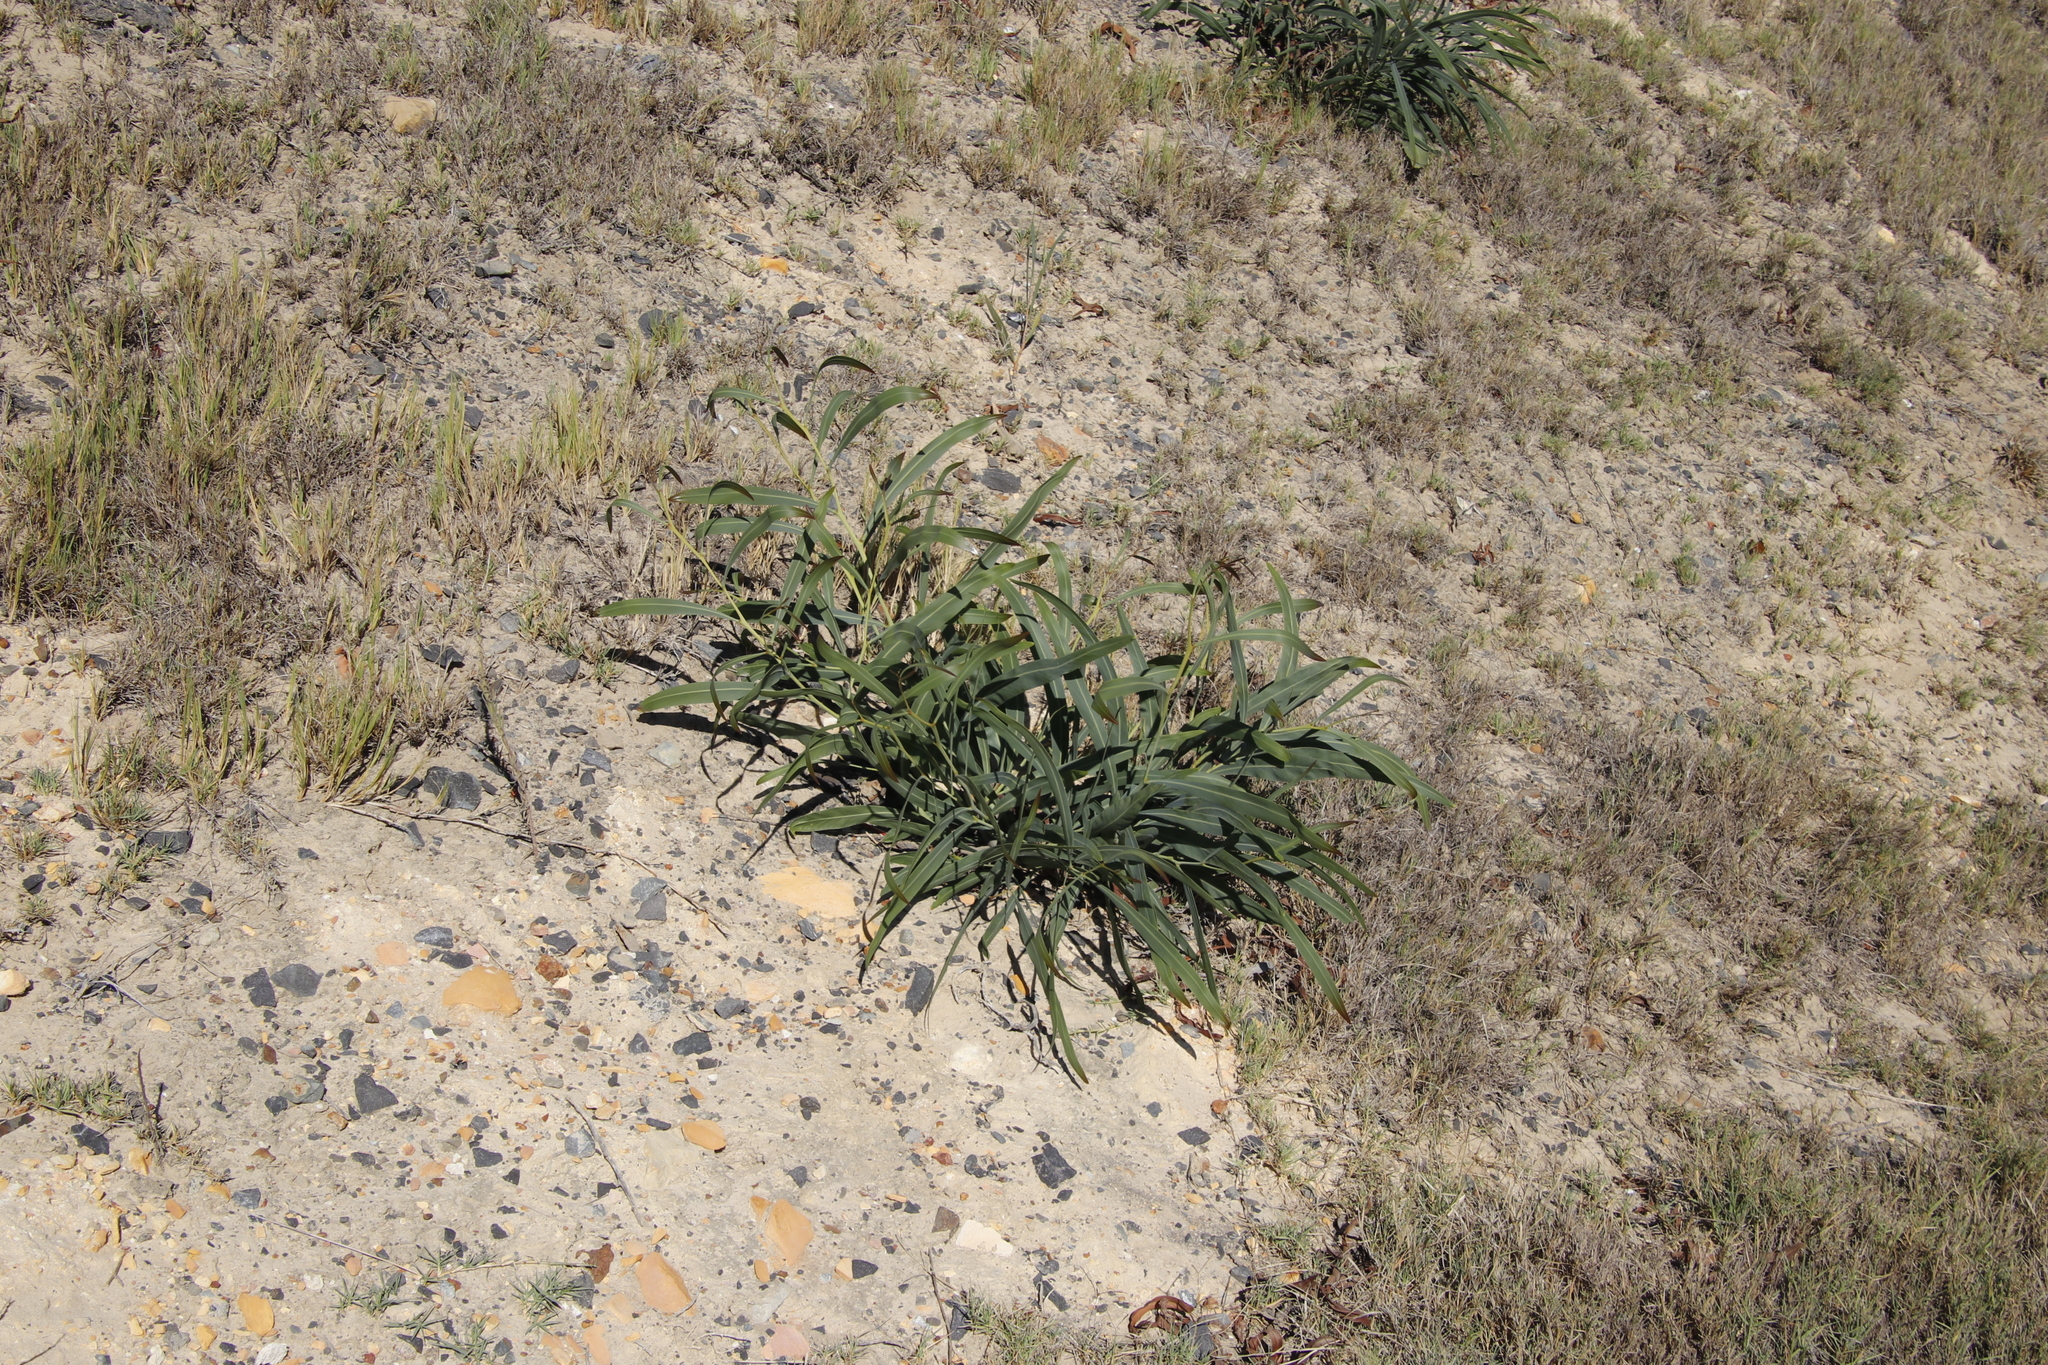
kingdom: Plantae
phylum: Tracheophyta
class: Magnoliopsida
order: Fabales
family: Fabaceae
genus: Acacia
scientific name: Acacia saligna
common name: Orange wattle
